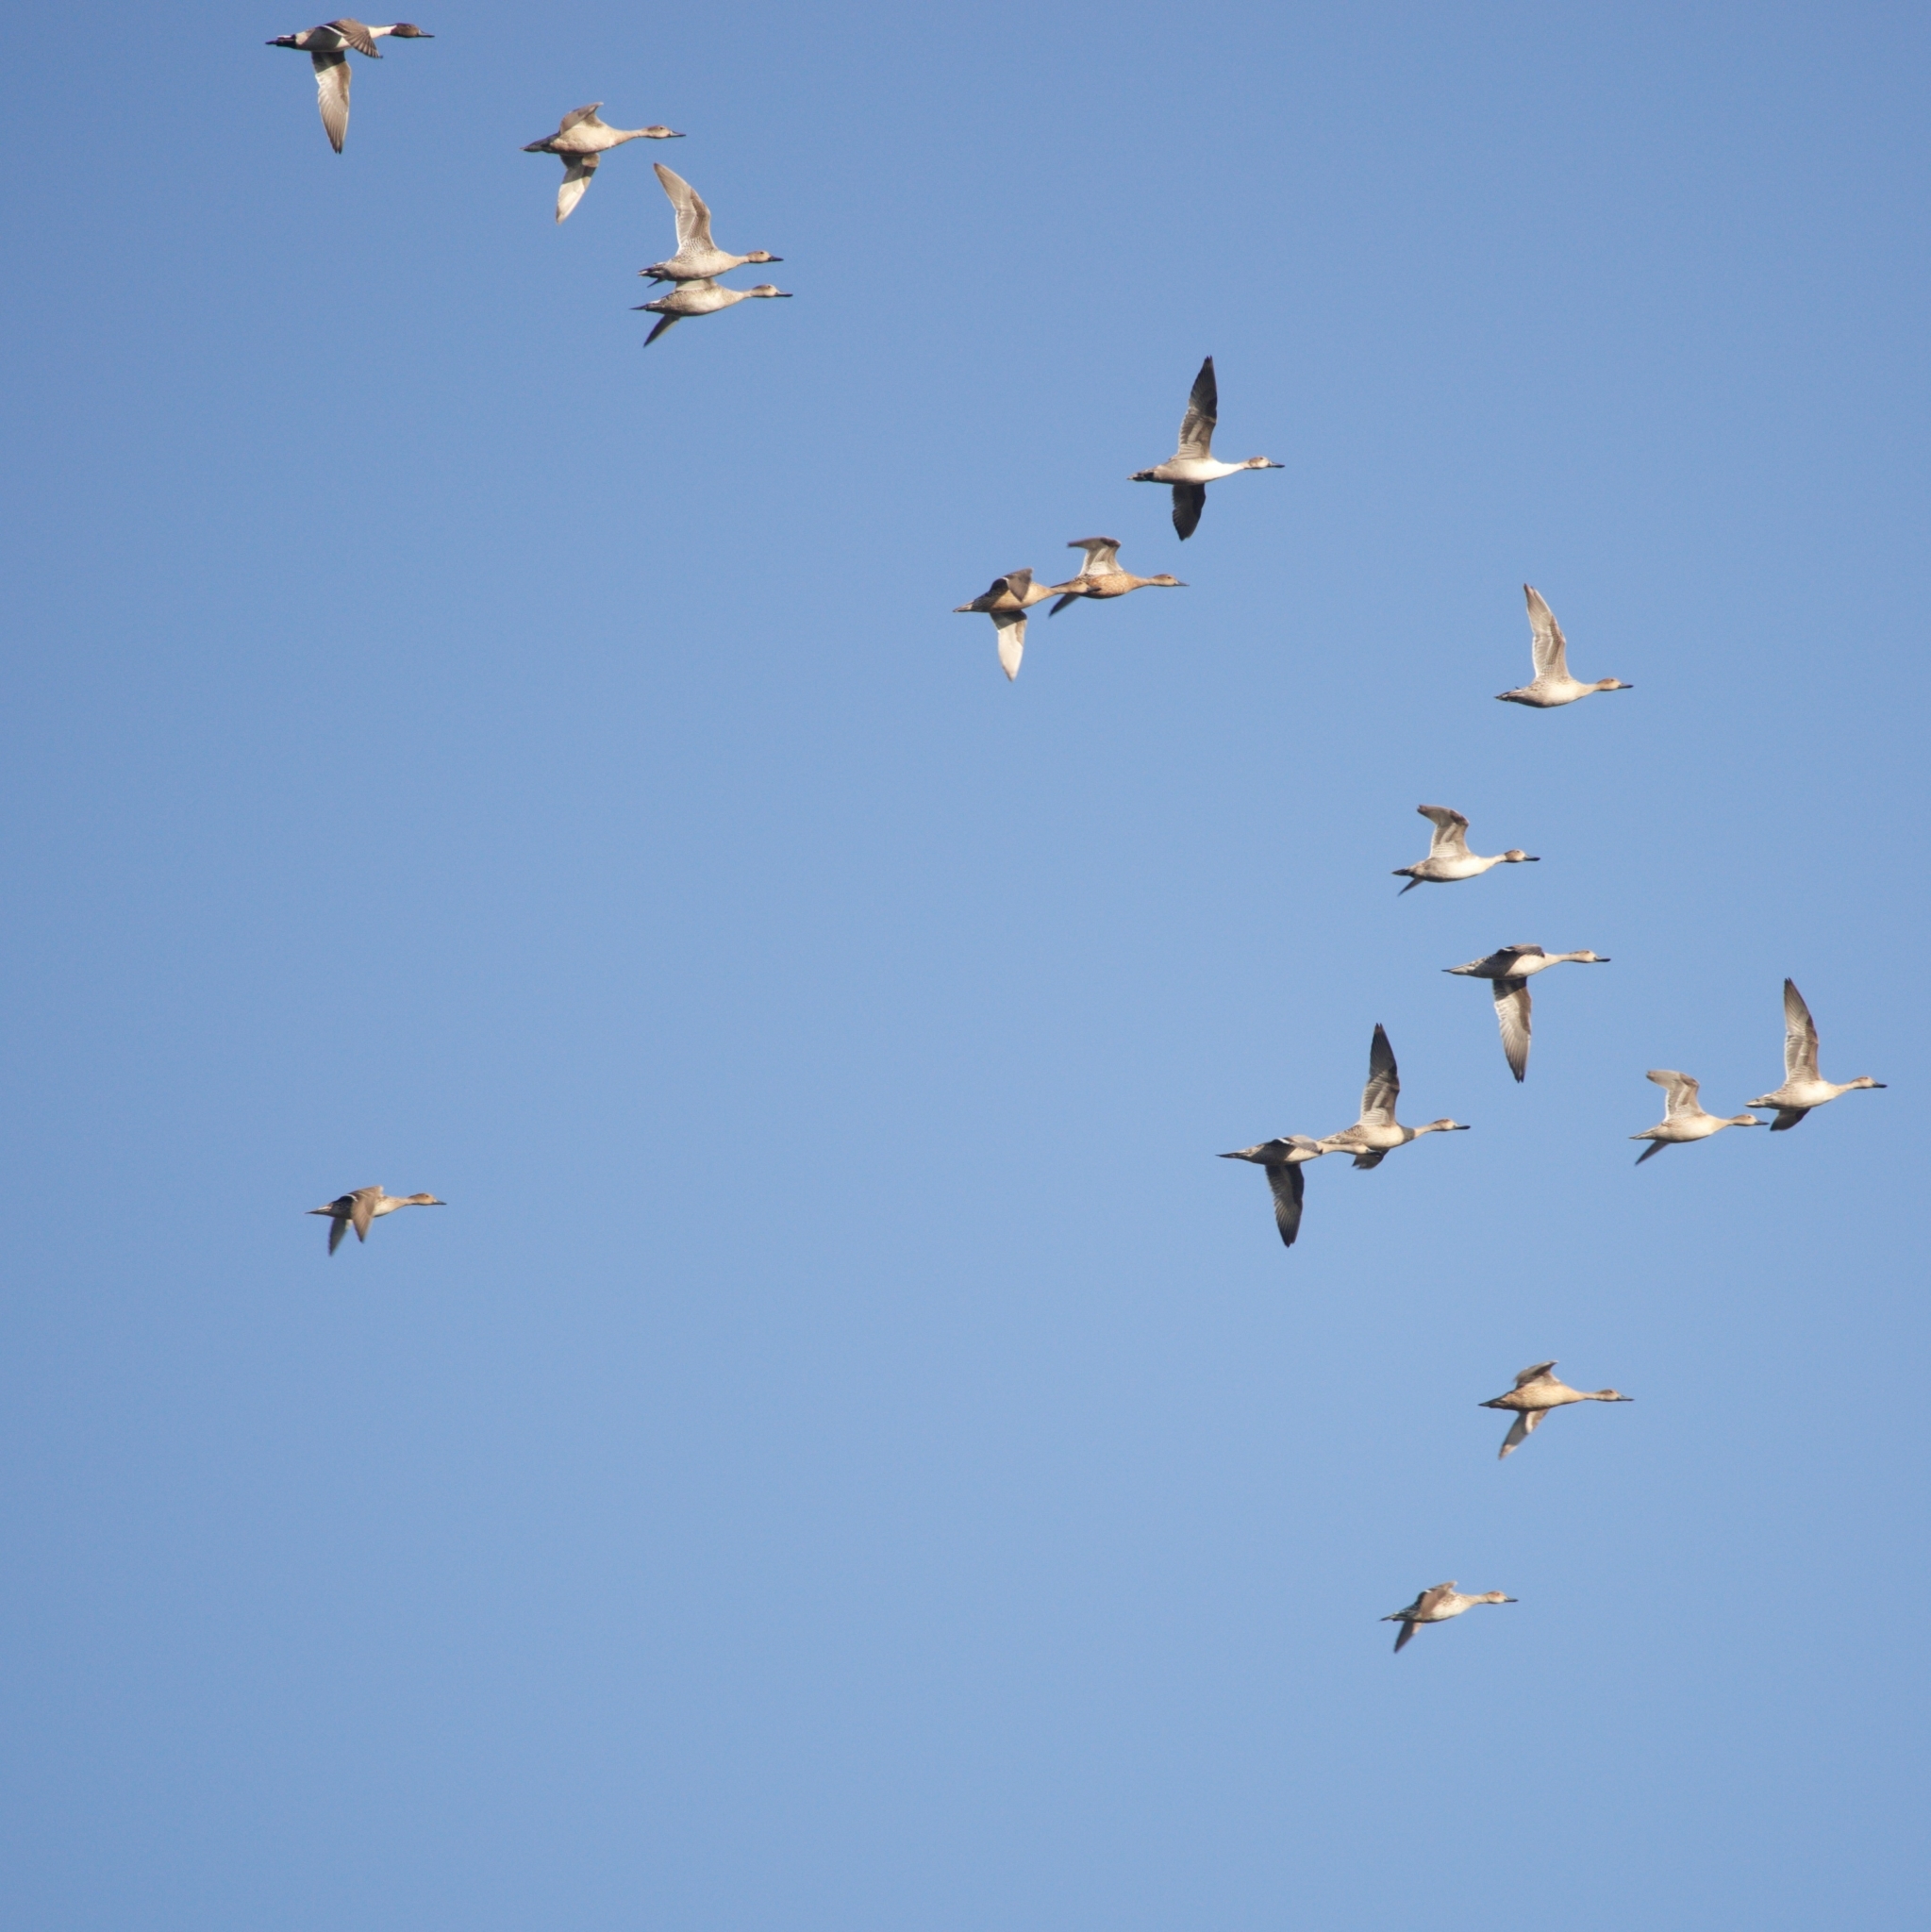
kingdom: Animalia
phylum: Chordata
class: Aves
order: Anseriformes
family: Anatidae
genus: Anas
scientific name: Anas acuta
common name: Northern pintail
